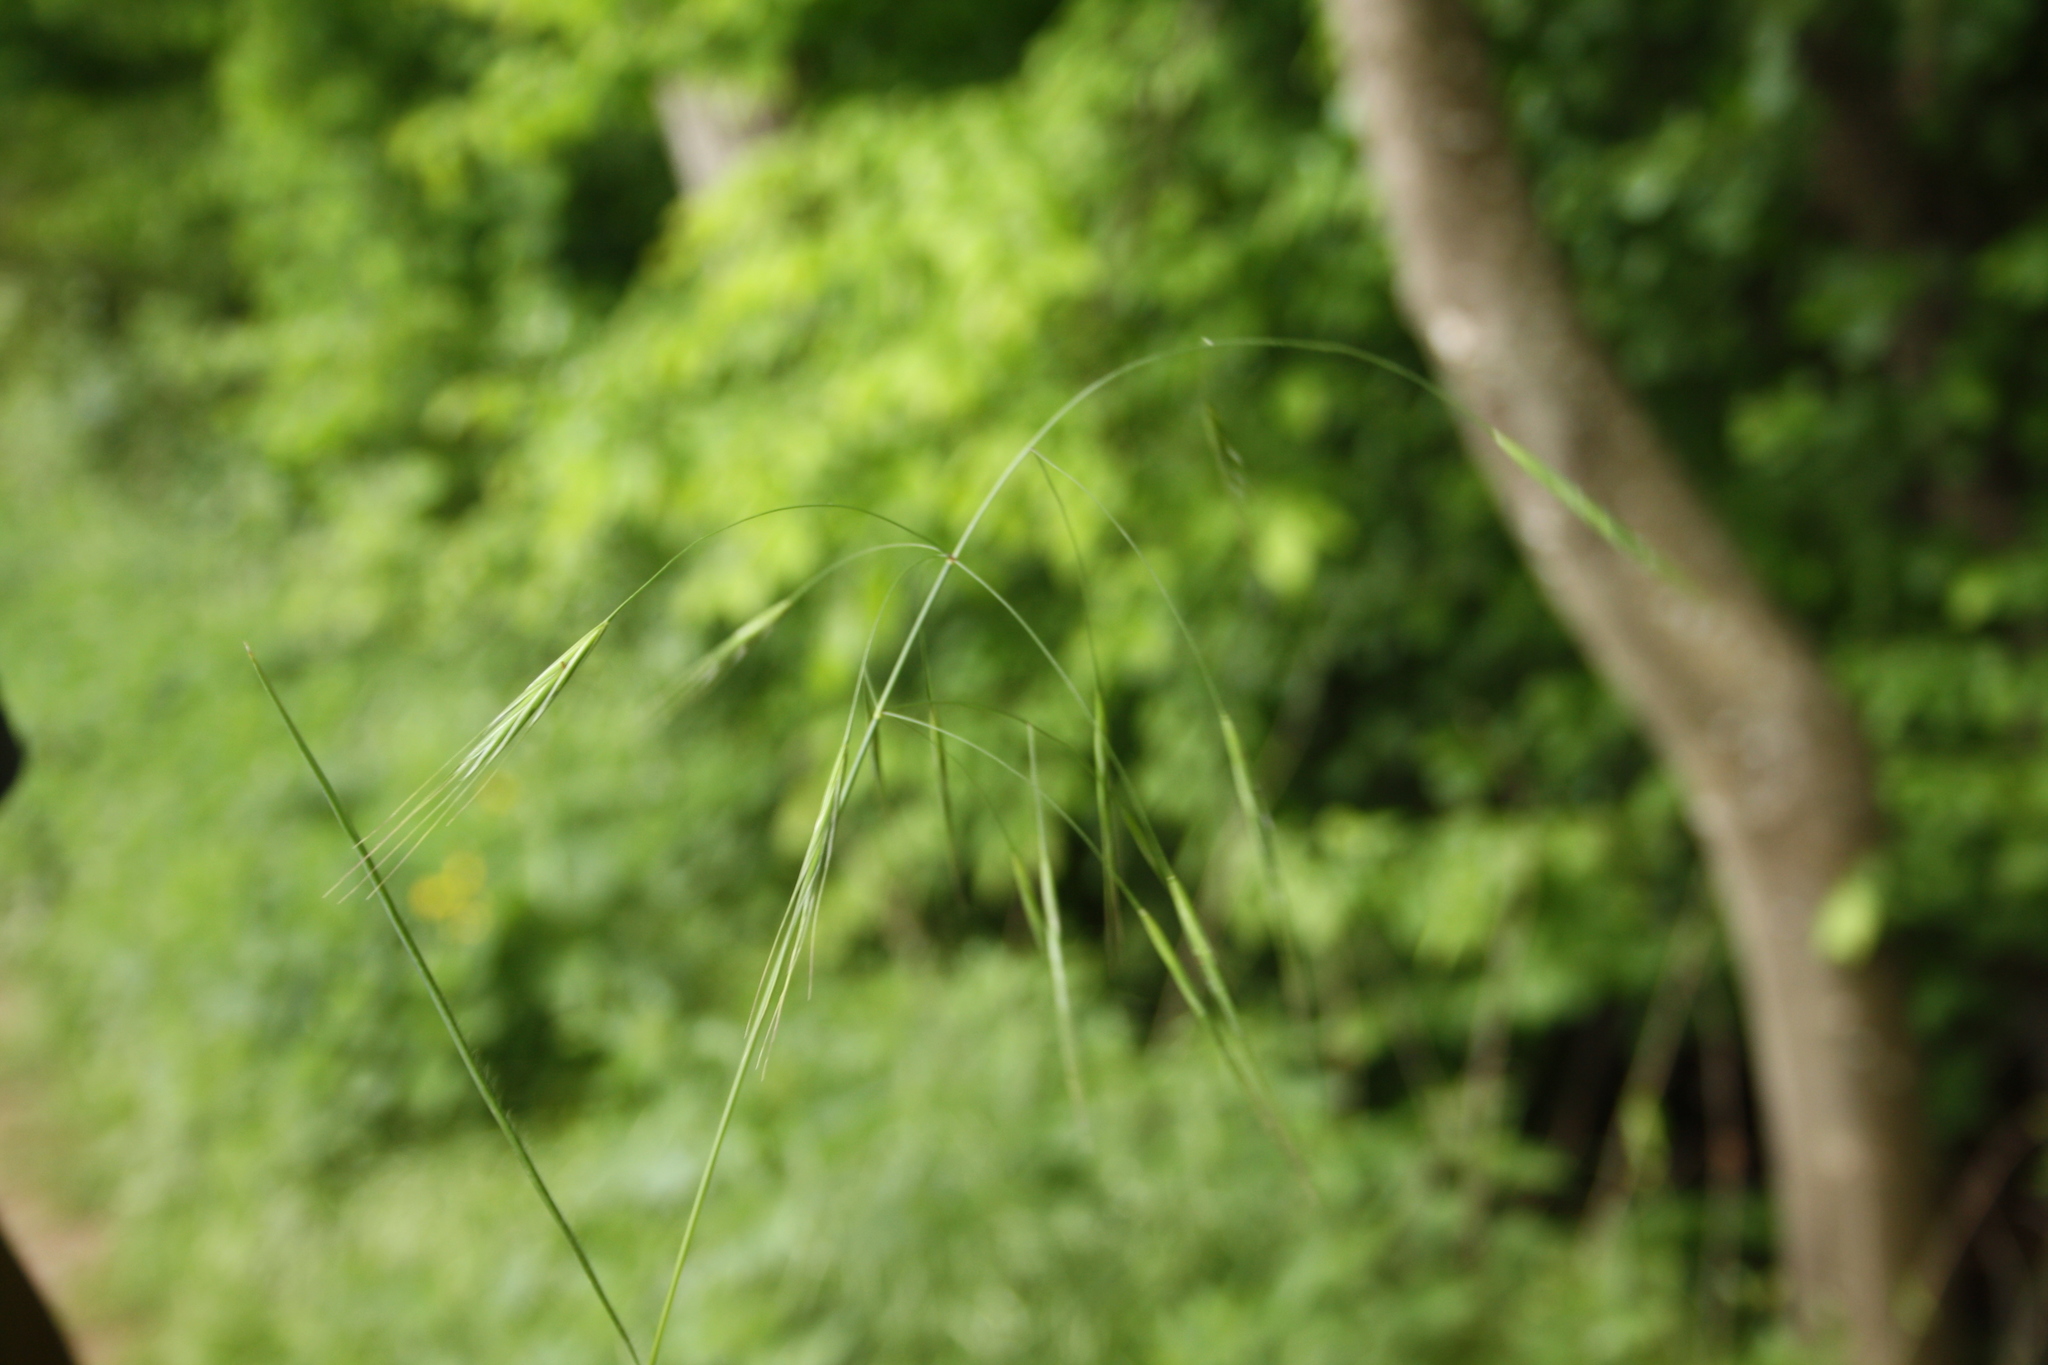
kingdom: Plantae
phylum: Tracheophyta
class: Liliopsida
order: Poales
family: Poaceae
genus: Bromus
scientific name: Bromus sterilis
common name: Poverty brome
